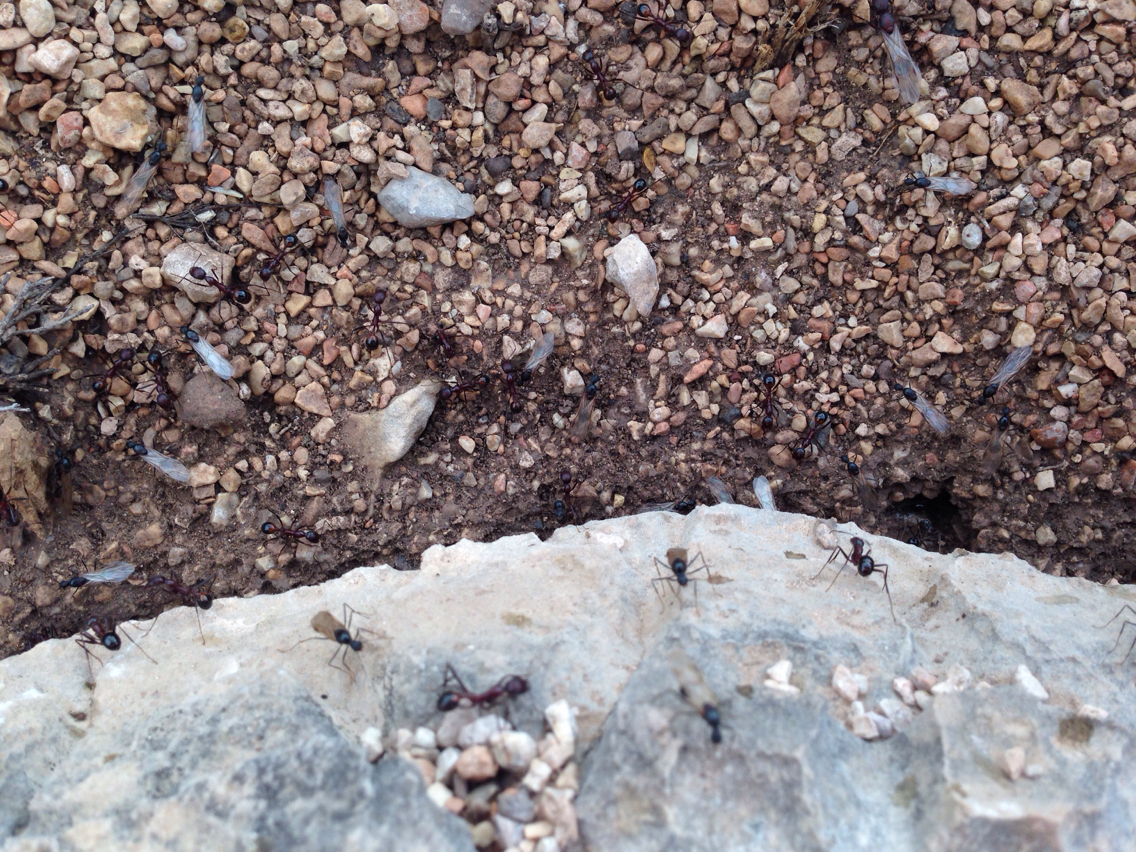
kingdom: Animalia
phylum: Arthropoda
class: Insecta
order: Hymenoptera
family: Formicidae
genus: Novomessor
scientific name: Novomessor cockerelli
